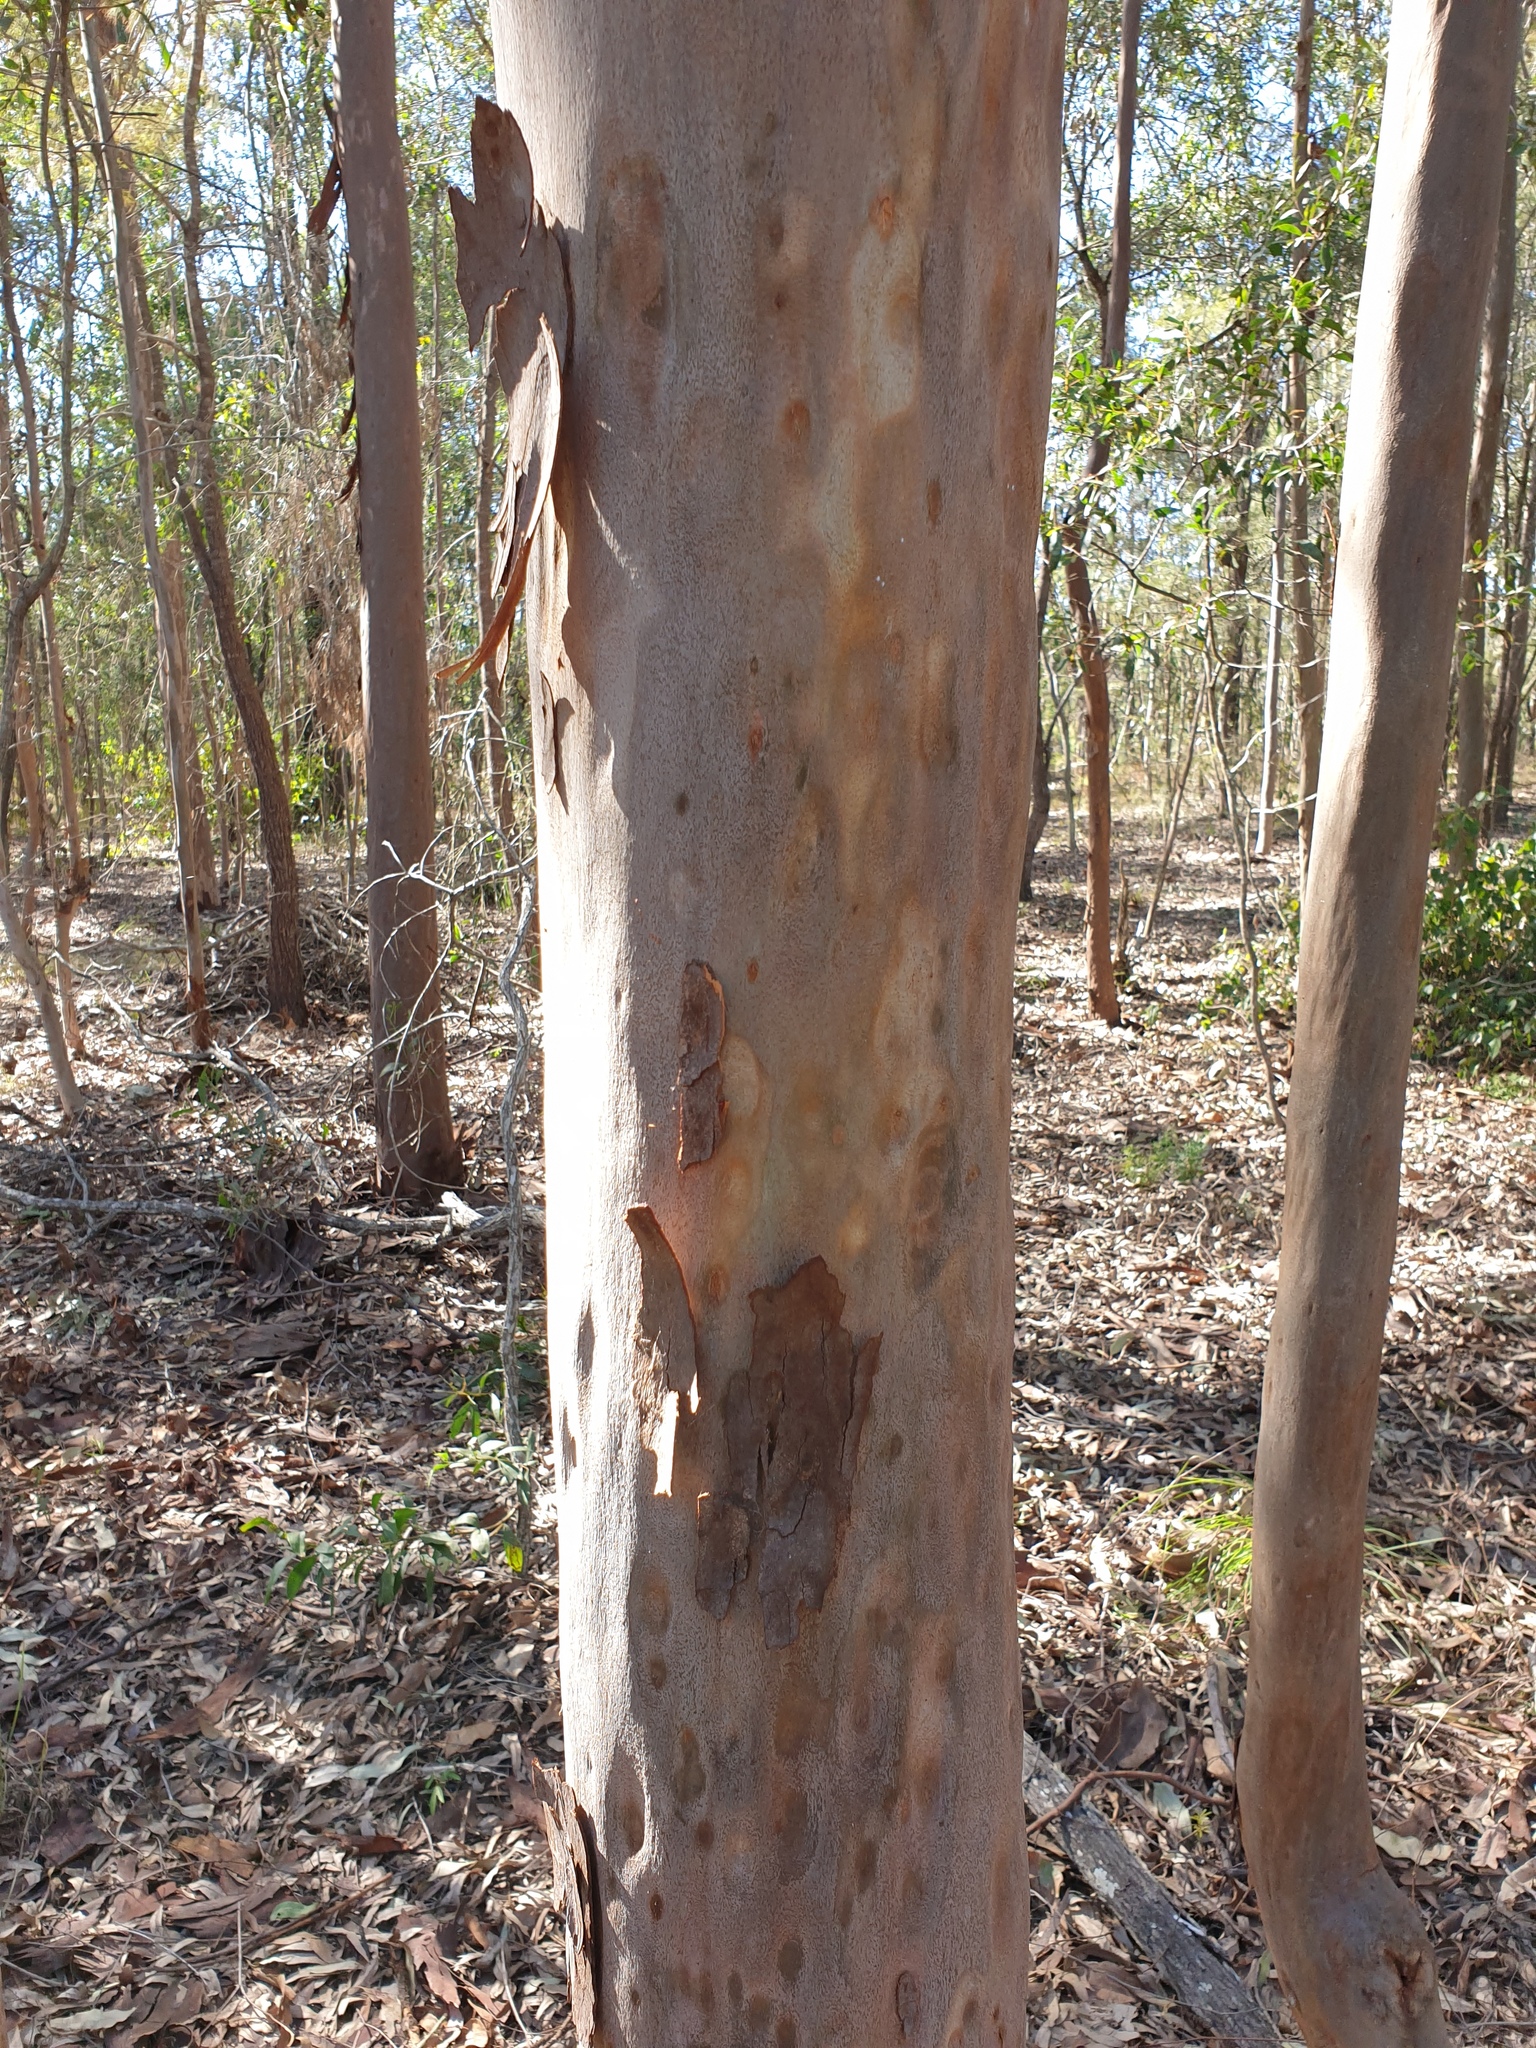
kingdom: Plantae
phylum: Tracheophyta
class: Magnoliopsida
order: Myrtales
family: Myrtaceae
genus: Corymbia
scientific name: Corymbia citriodora
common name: Lemonscented gum
